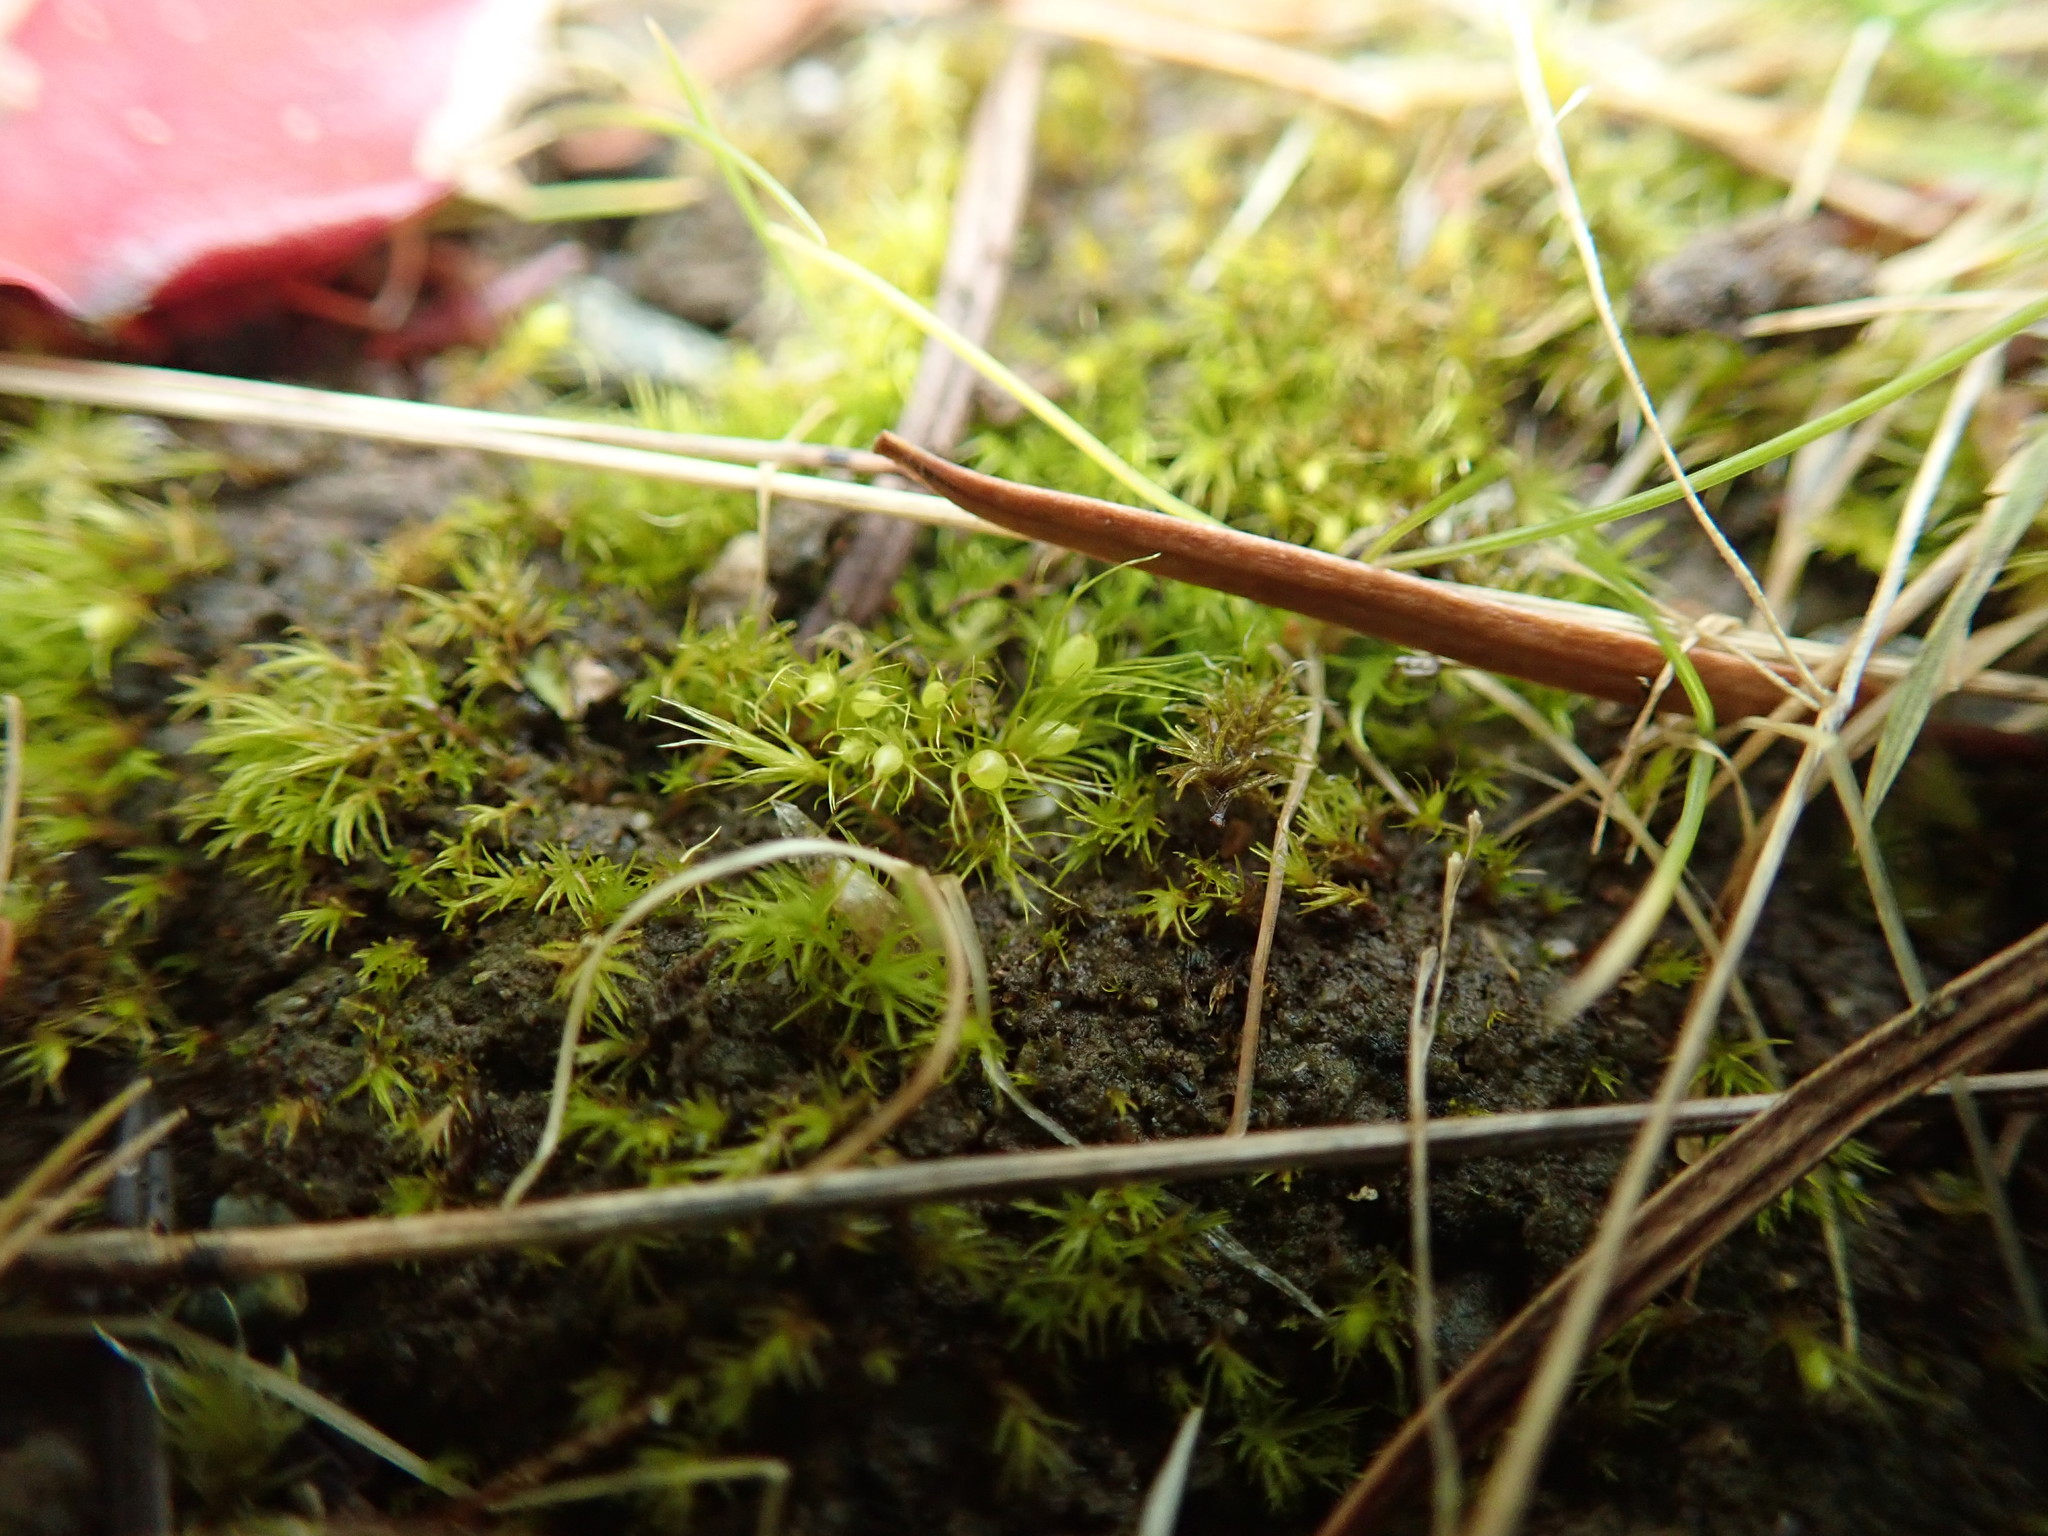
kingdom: Plantae
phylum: Bryophyta
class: Bryopsida
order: Dicranales
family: Ditrichaceae
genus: Pleuridium
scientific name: Pleuridium acuminatum
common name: Taper-leaved earth-moss
